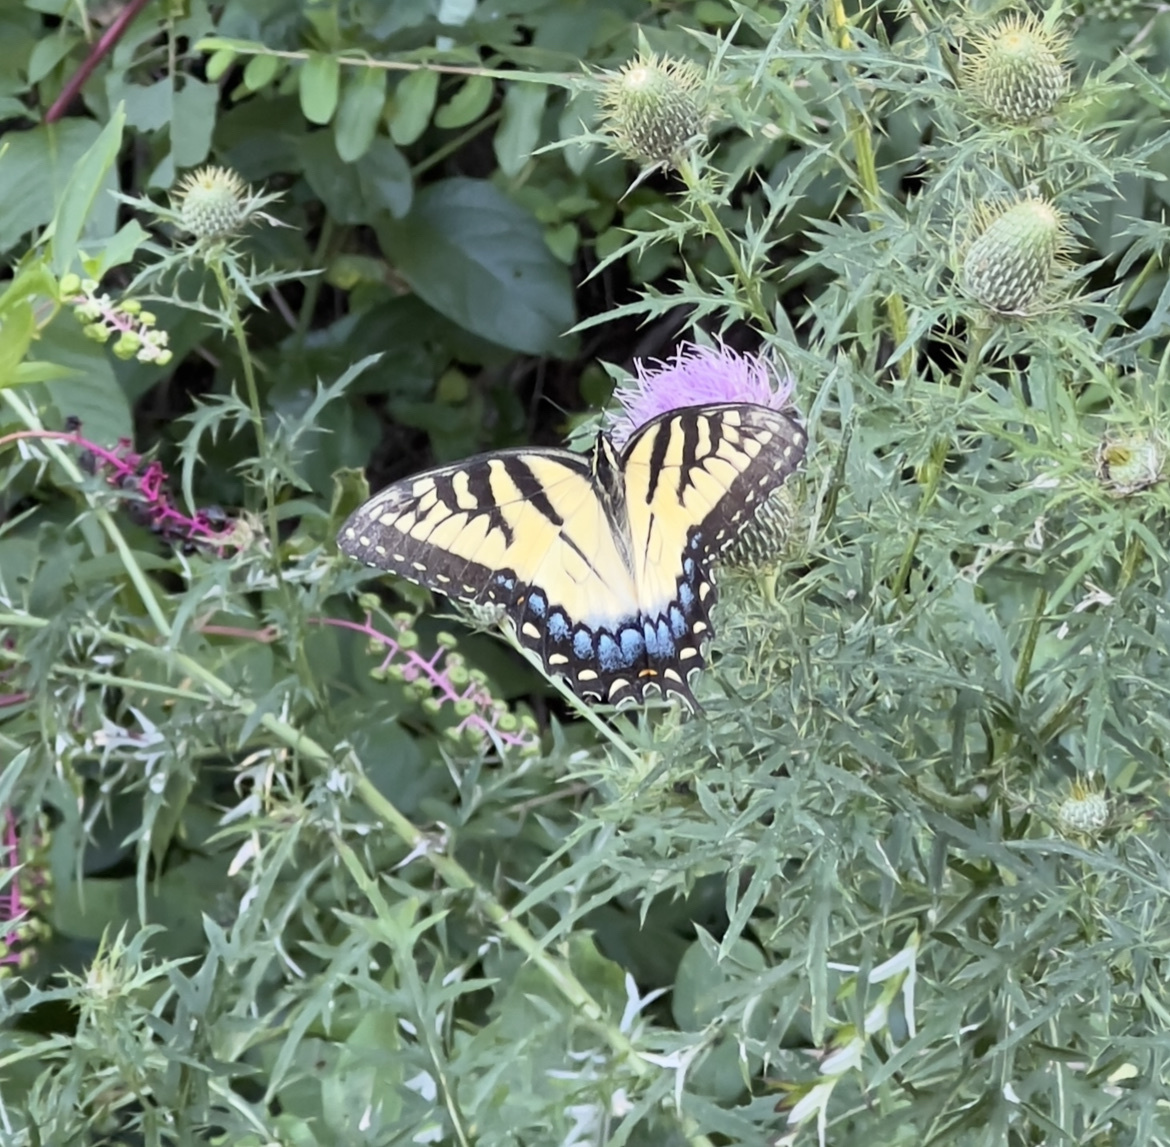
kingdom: Animalia
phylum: Arthropoda
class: Insecta
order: Lepidoptera
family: Papilionidae
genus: Papilio
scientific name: Papilio glaucus
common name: Tiger swallowtail
